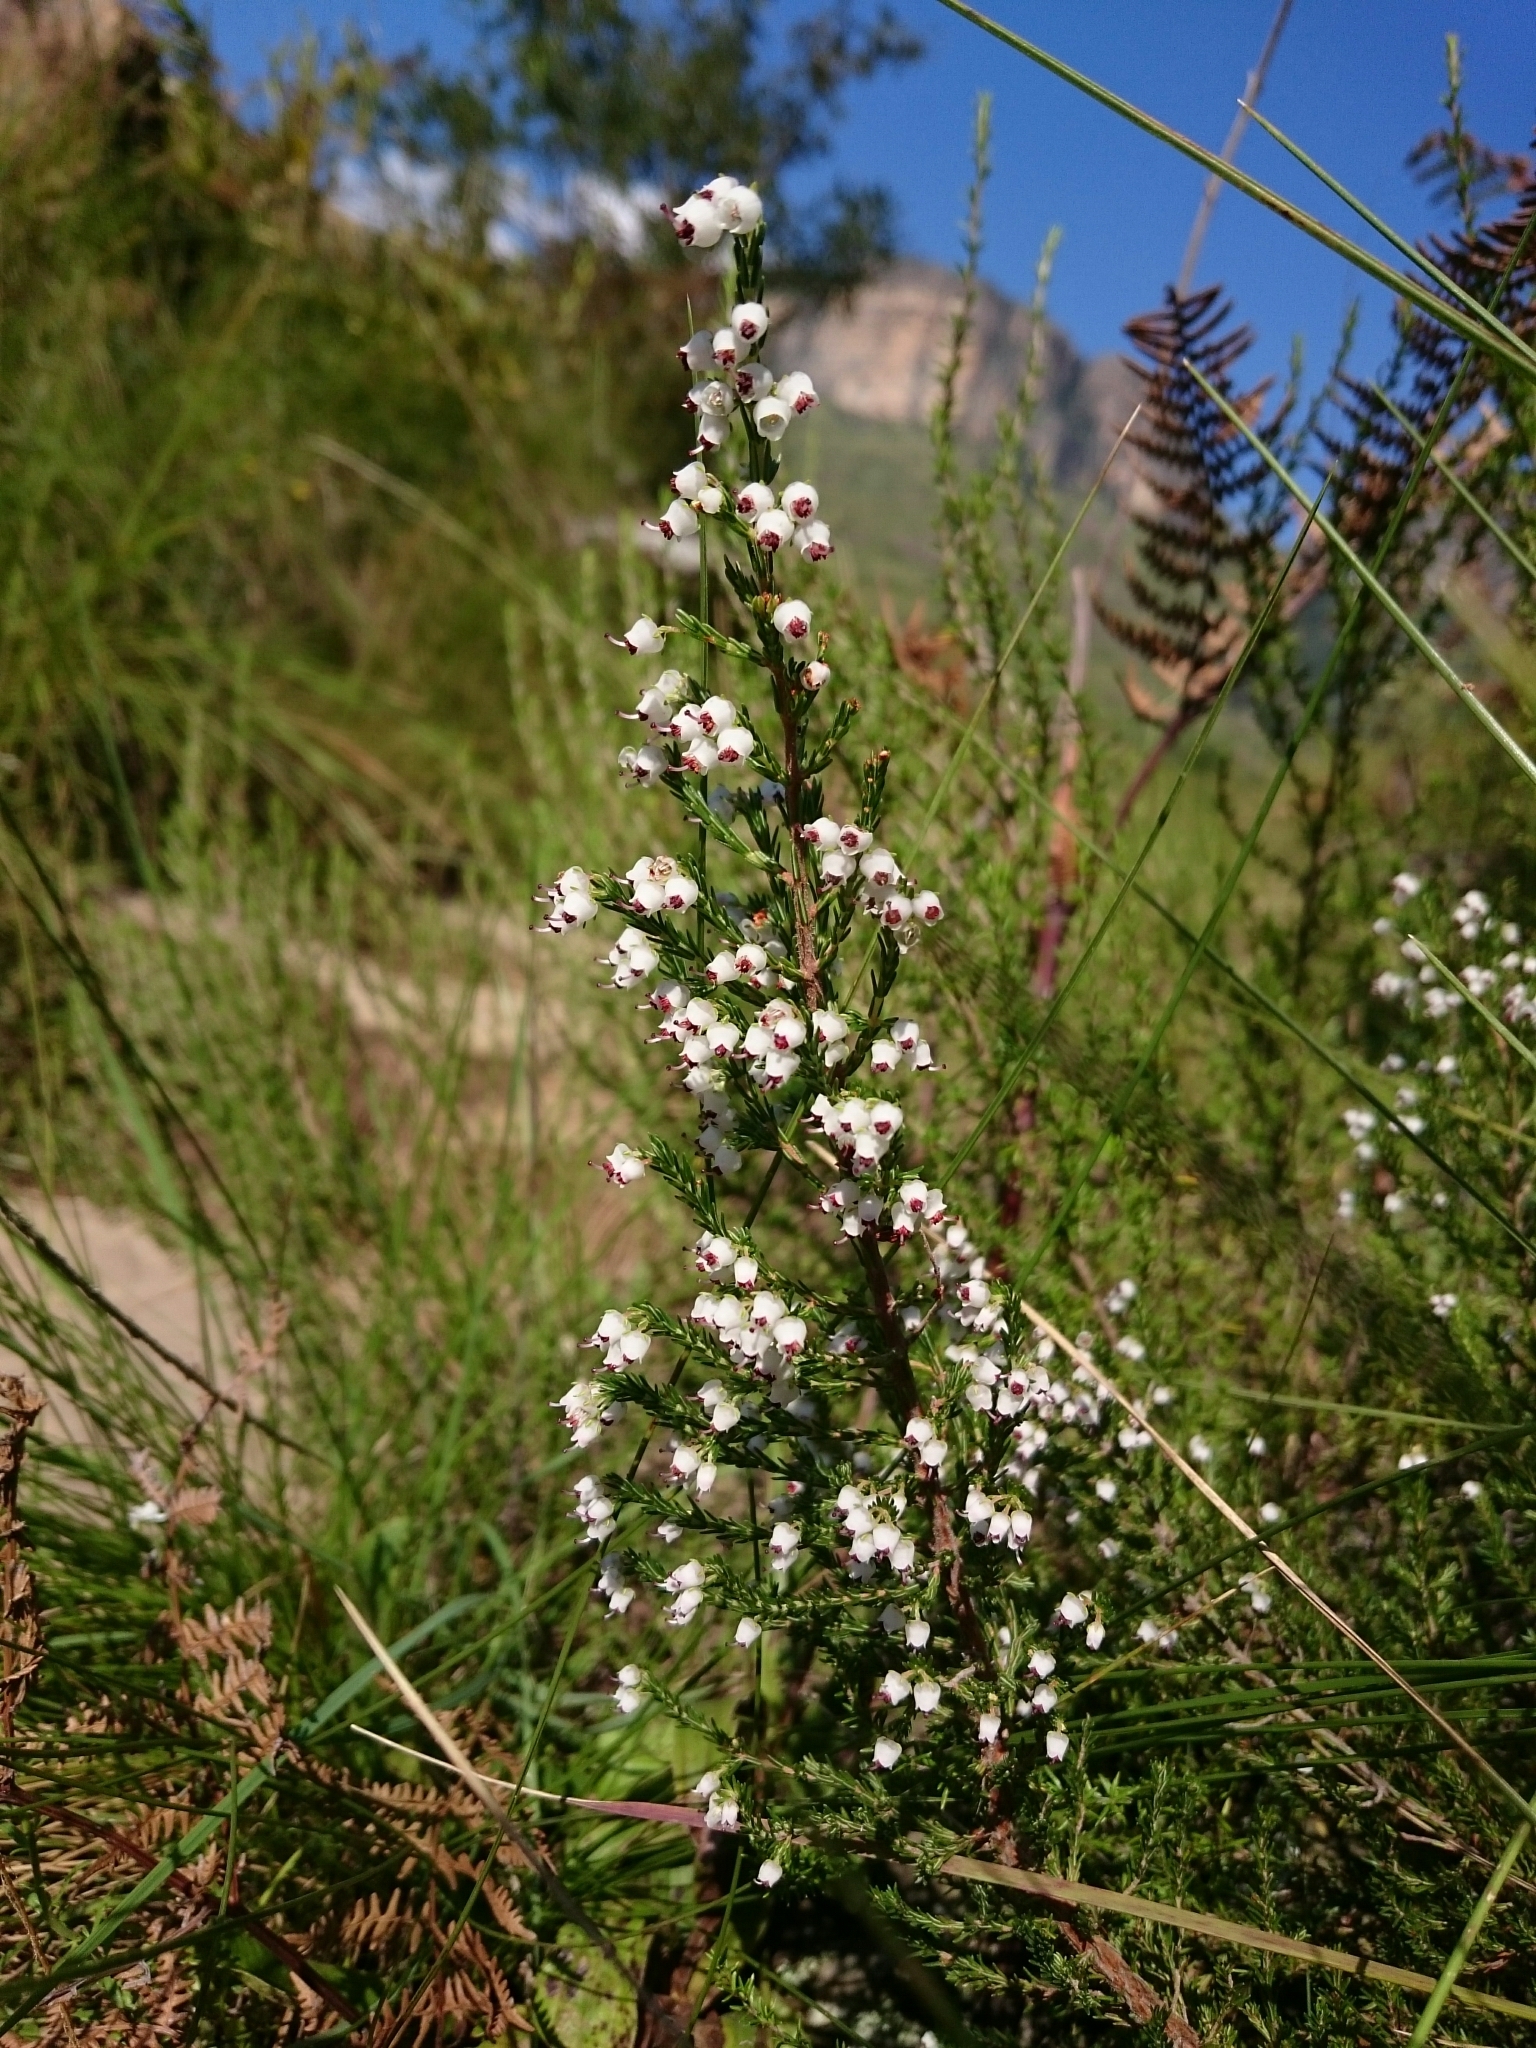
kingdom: Plantae
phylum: Tracheophyta
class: Magnoliopsida
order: Ericales
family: Ericaceae
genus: Erica
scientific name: Erica aestiva
